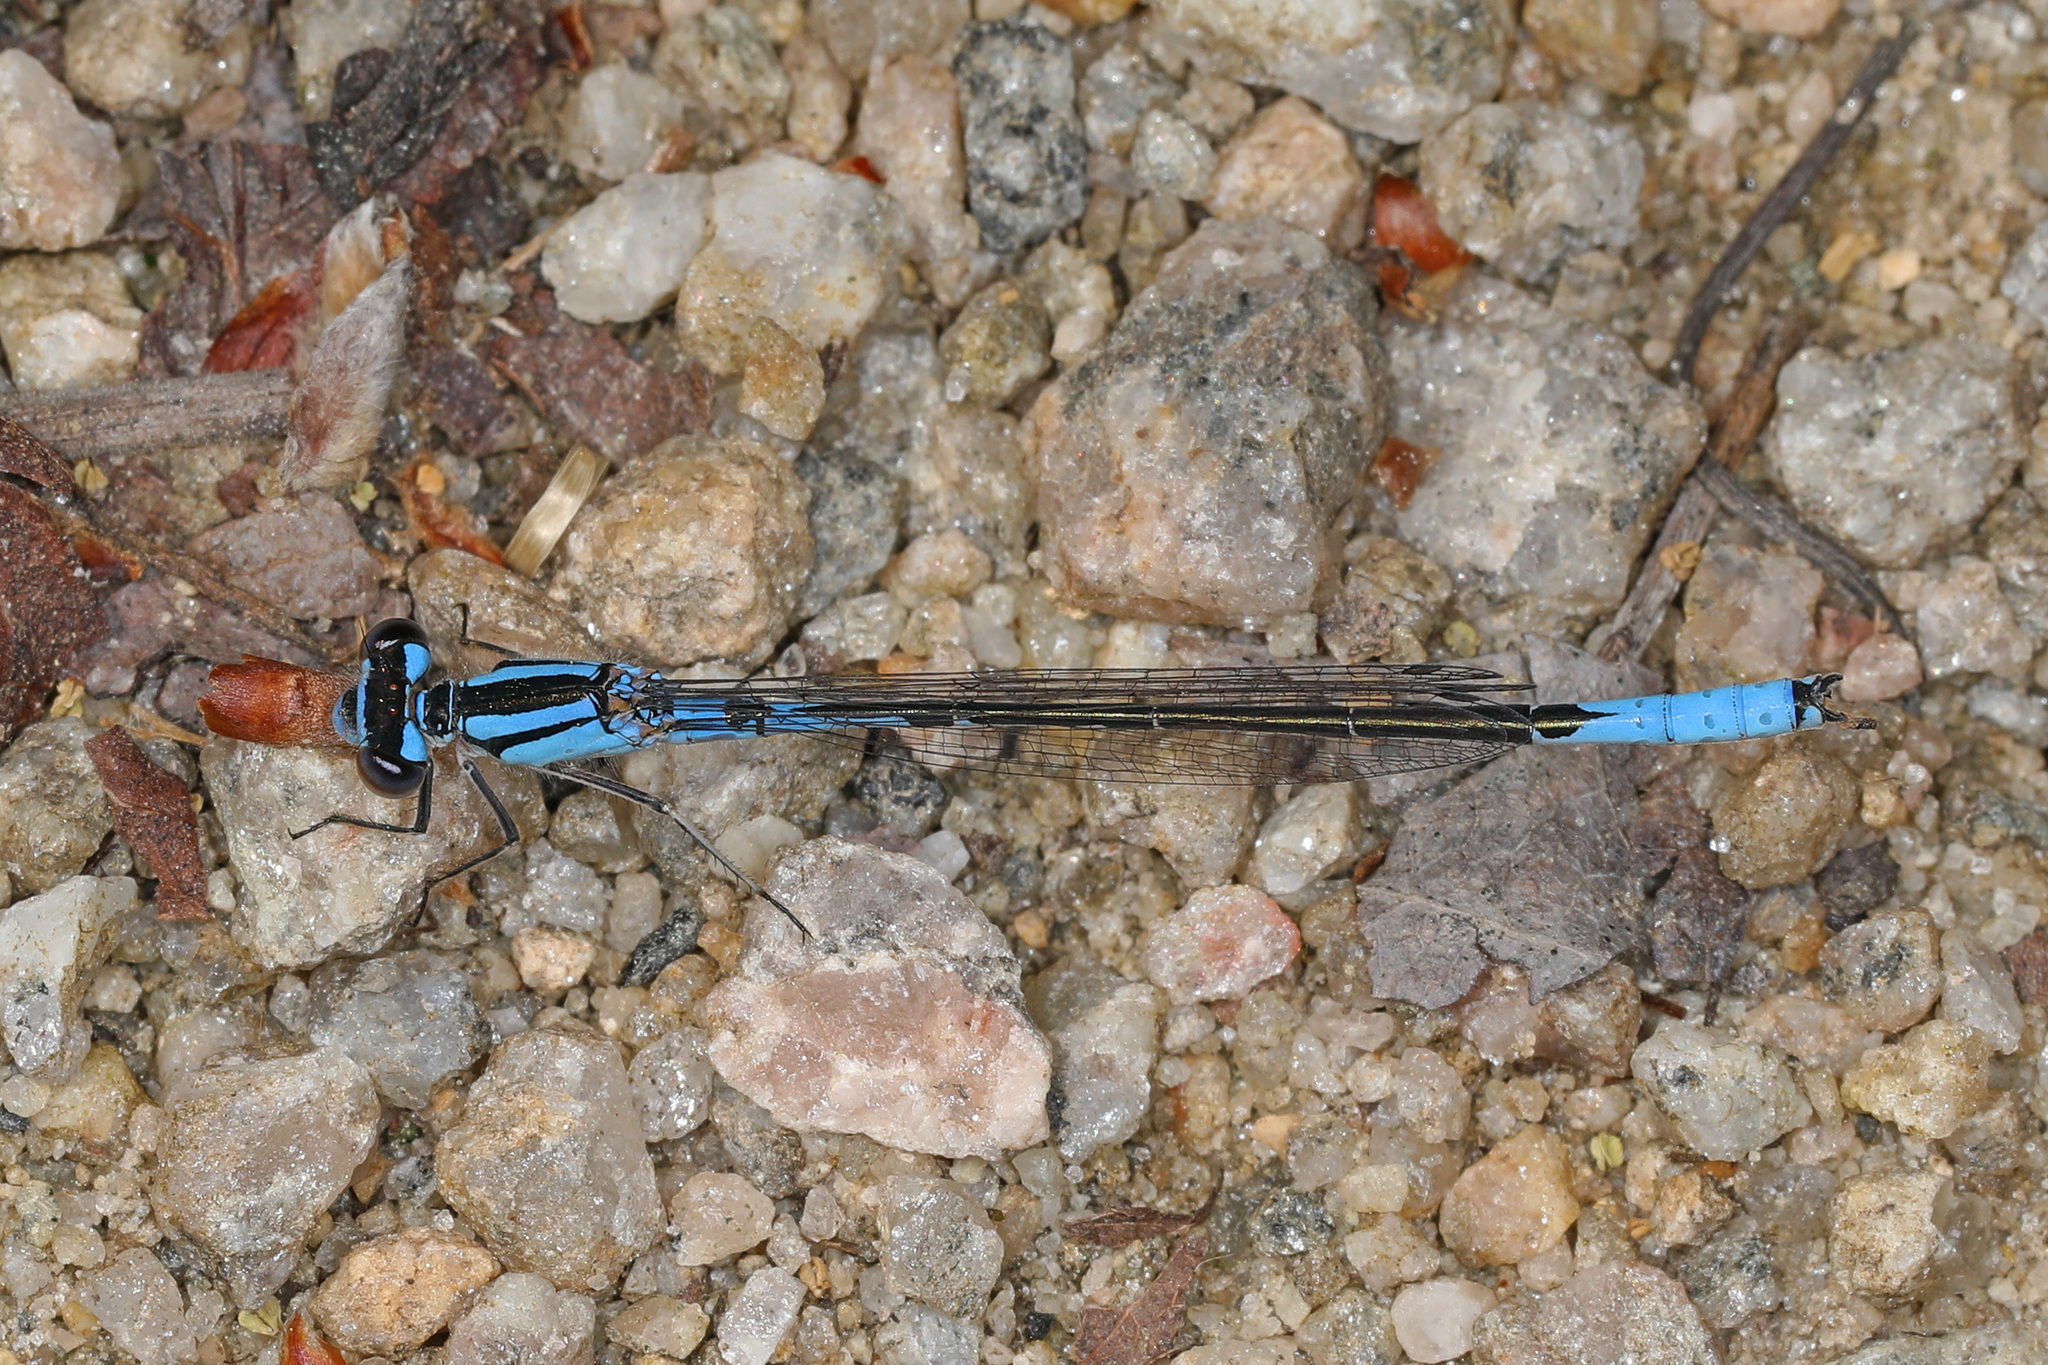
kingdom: Animalia
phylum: Arthropoda
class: Insecta
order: Odonata
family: Coenagrionidae
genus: Enallagma
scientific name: Enallagma aspersum
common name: Azure bluet
